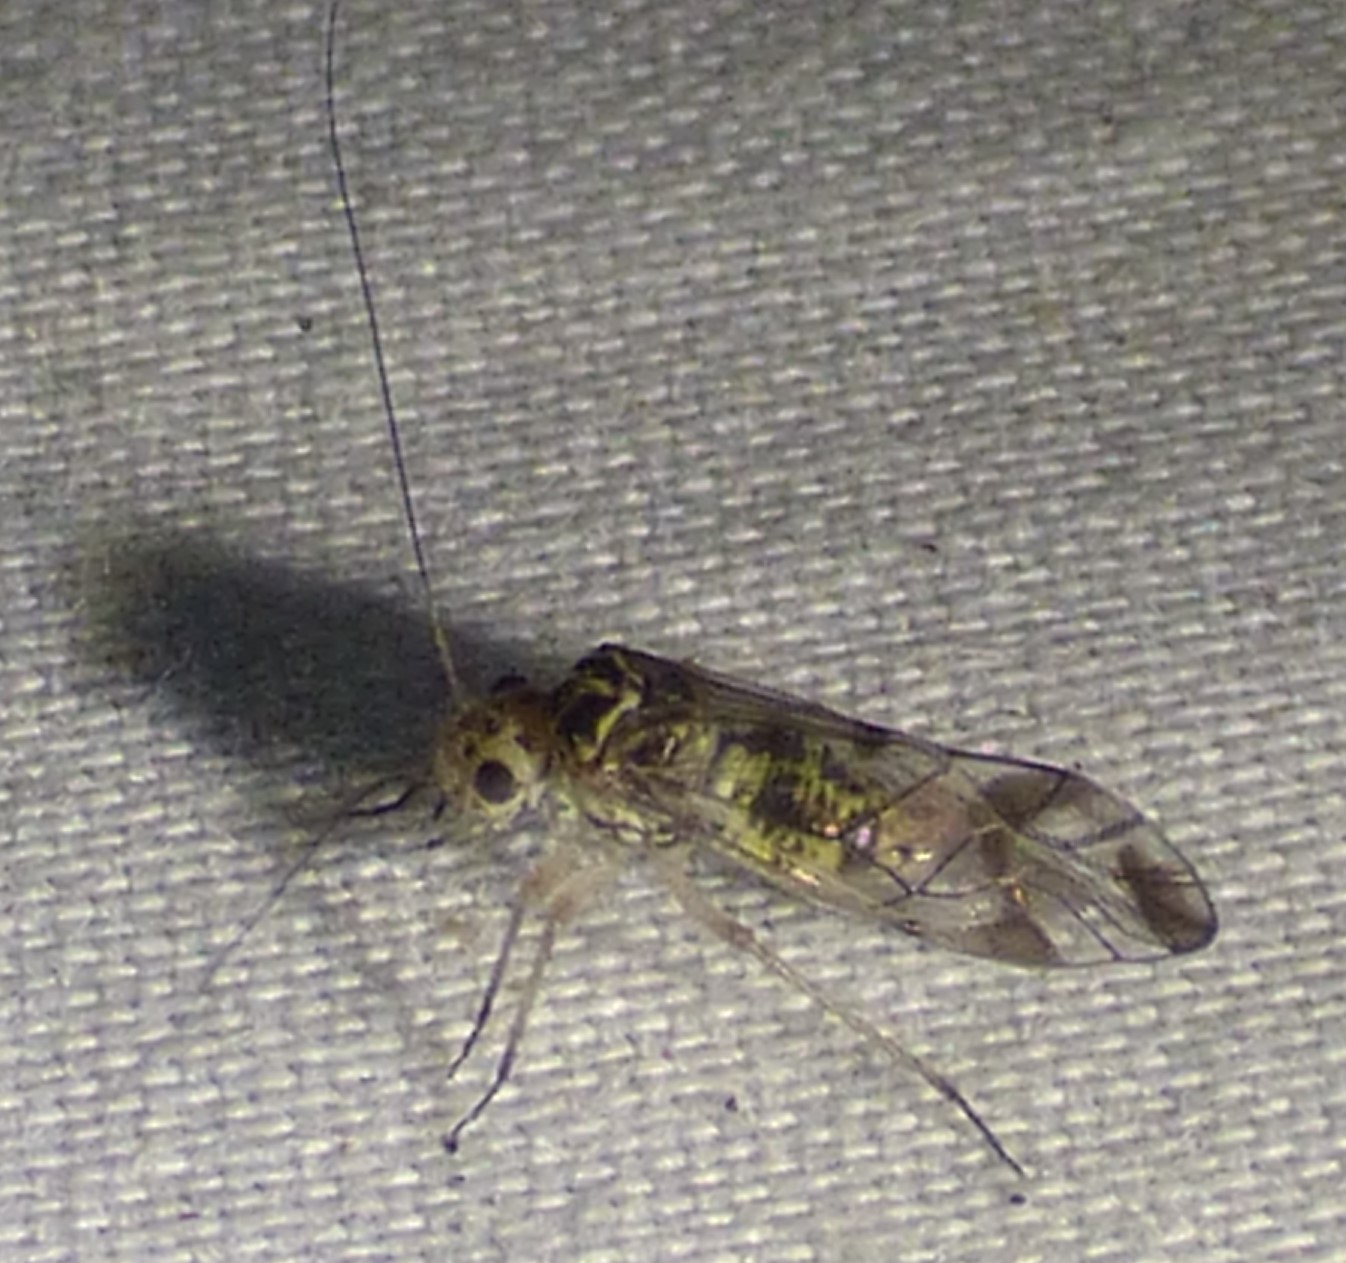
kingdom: Animalia
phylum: Arthropoda
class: Insecta
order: Psocodea
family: Psocidae
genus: Metylophorus
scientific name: Metylophorus novaescotiae
